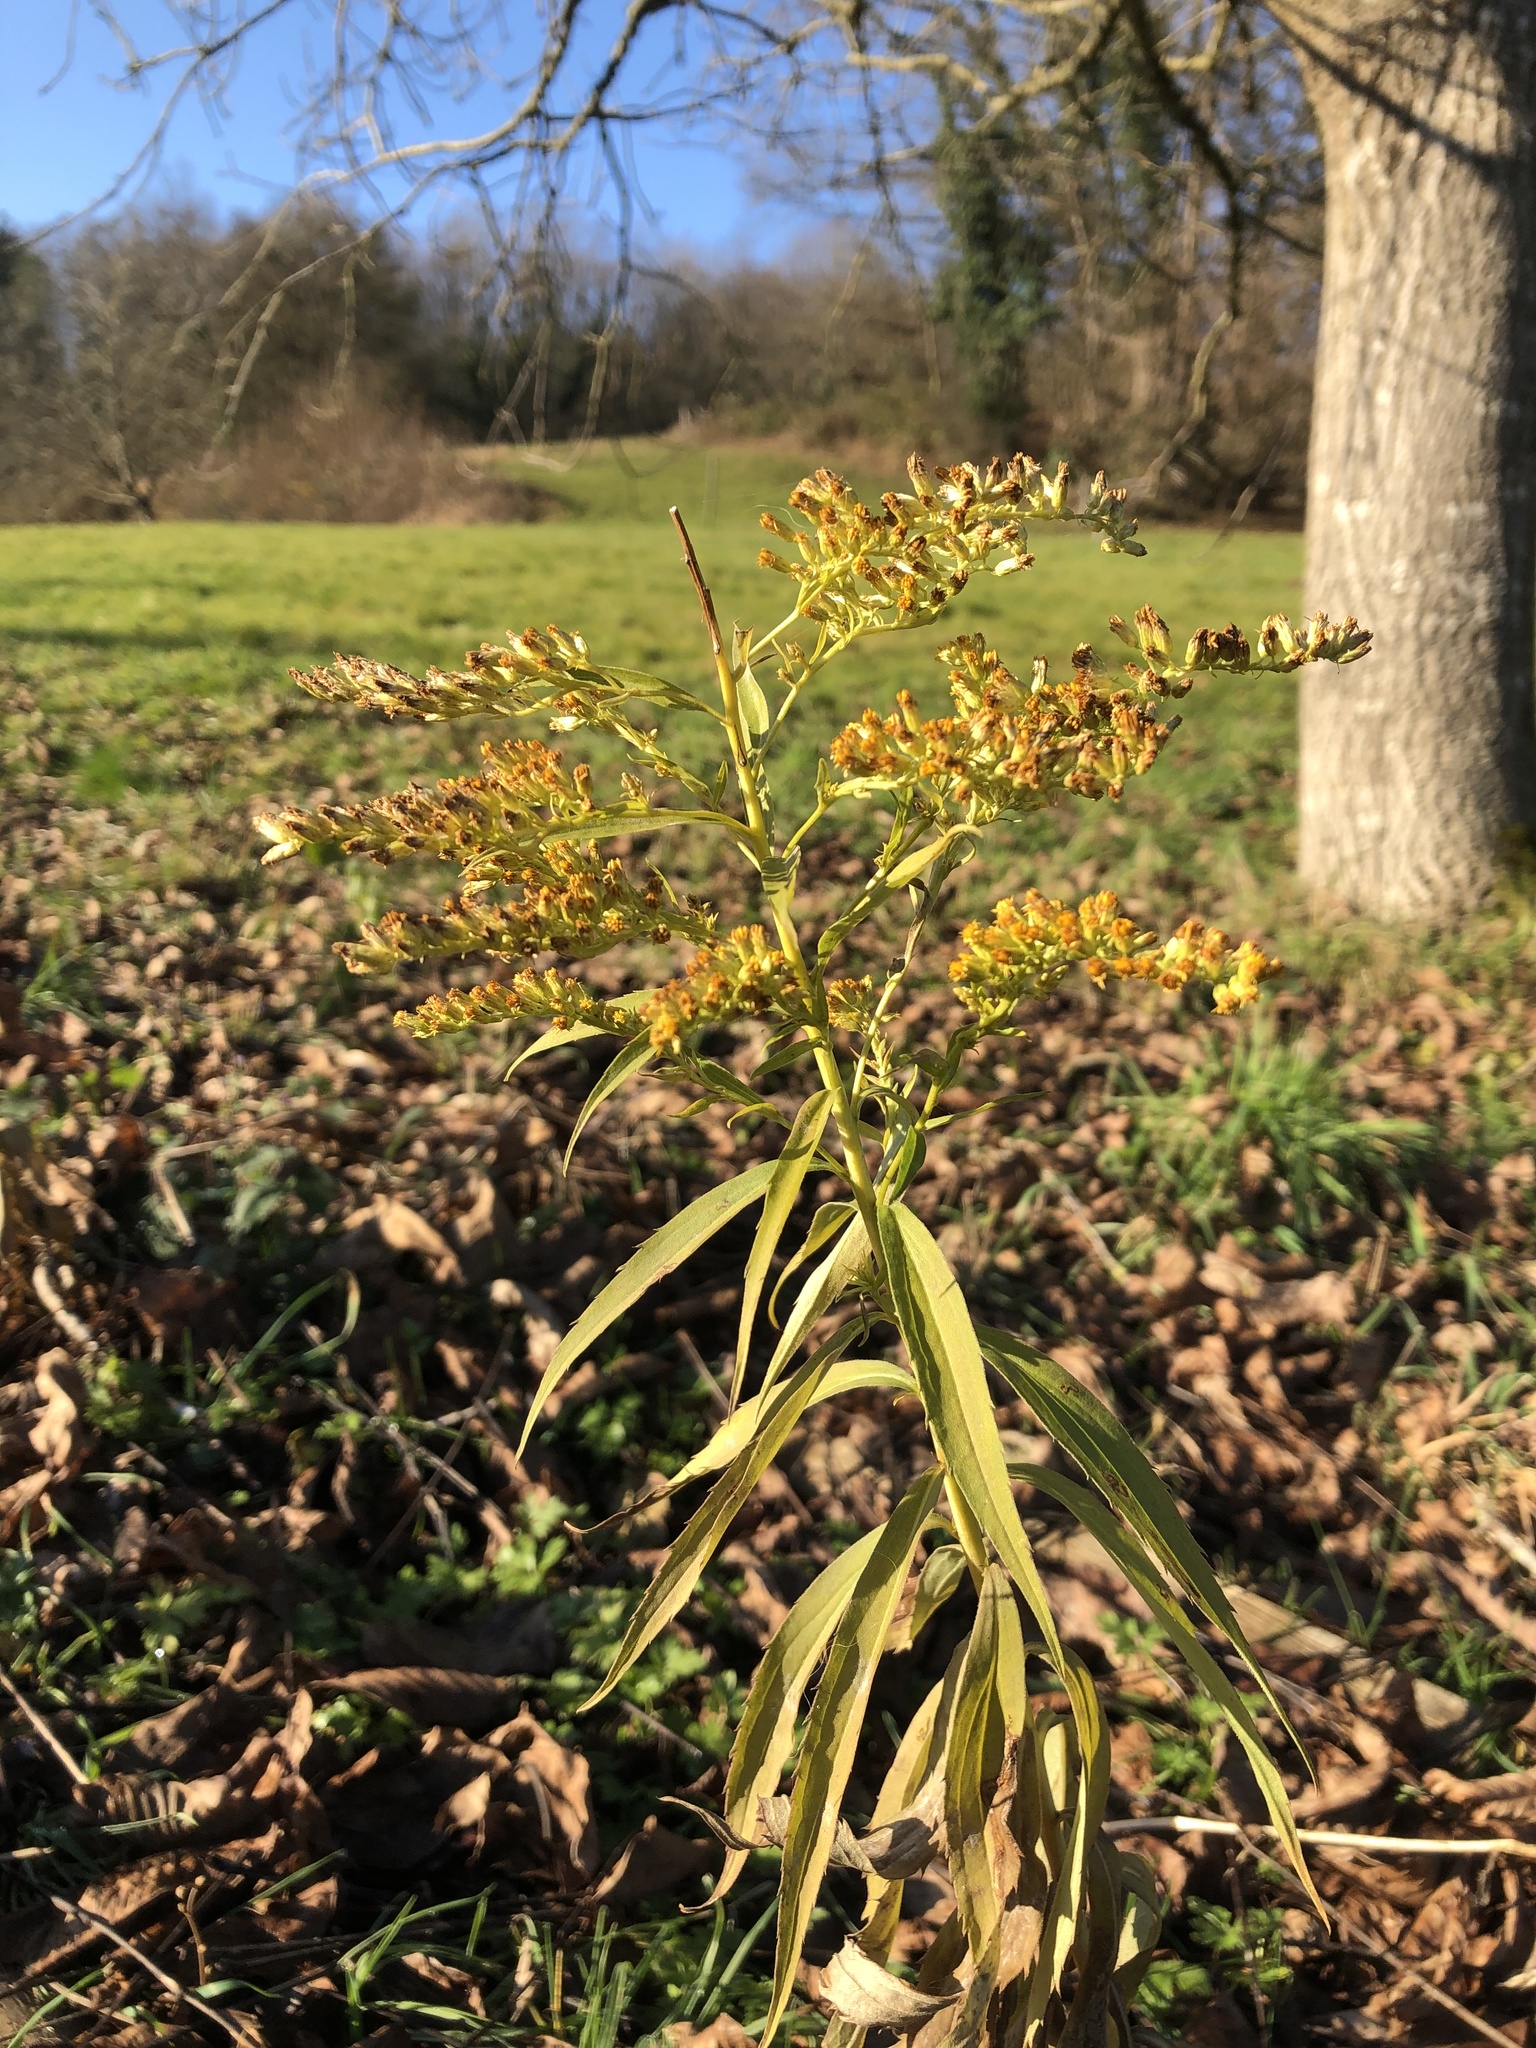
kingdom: Plantae
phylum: Tracheophyta
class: Magnoliopsida
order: Asterales
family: Asteraceae
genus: Solidago
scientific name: Solidago canadensis
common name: Canada goldenrod
